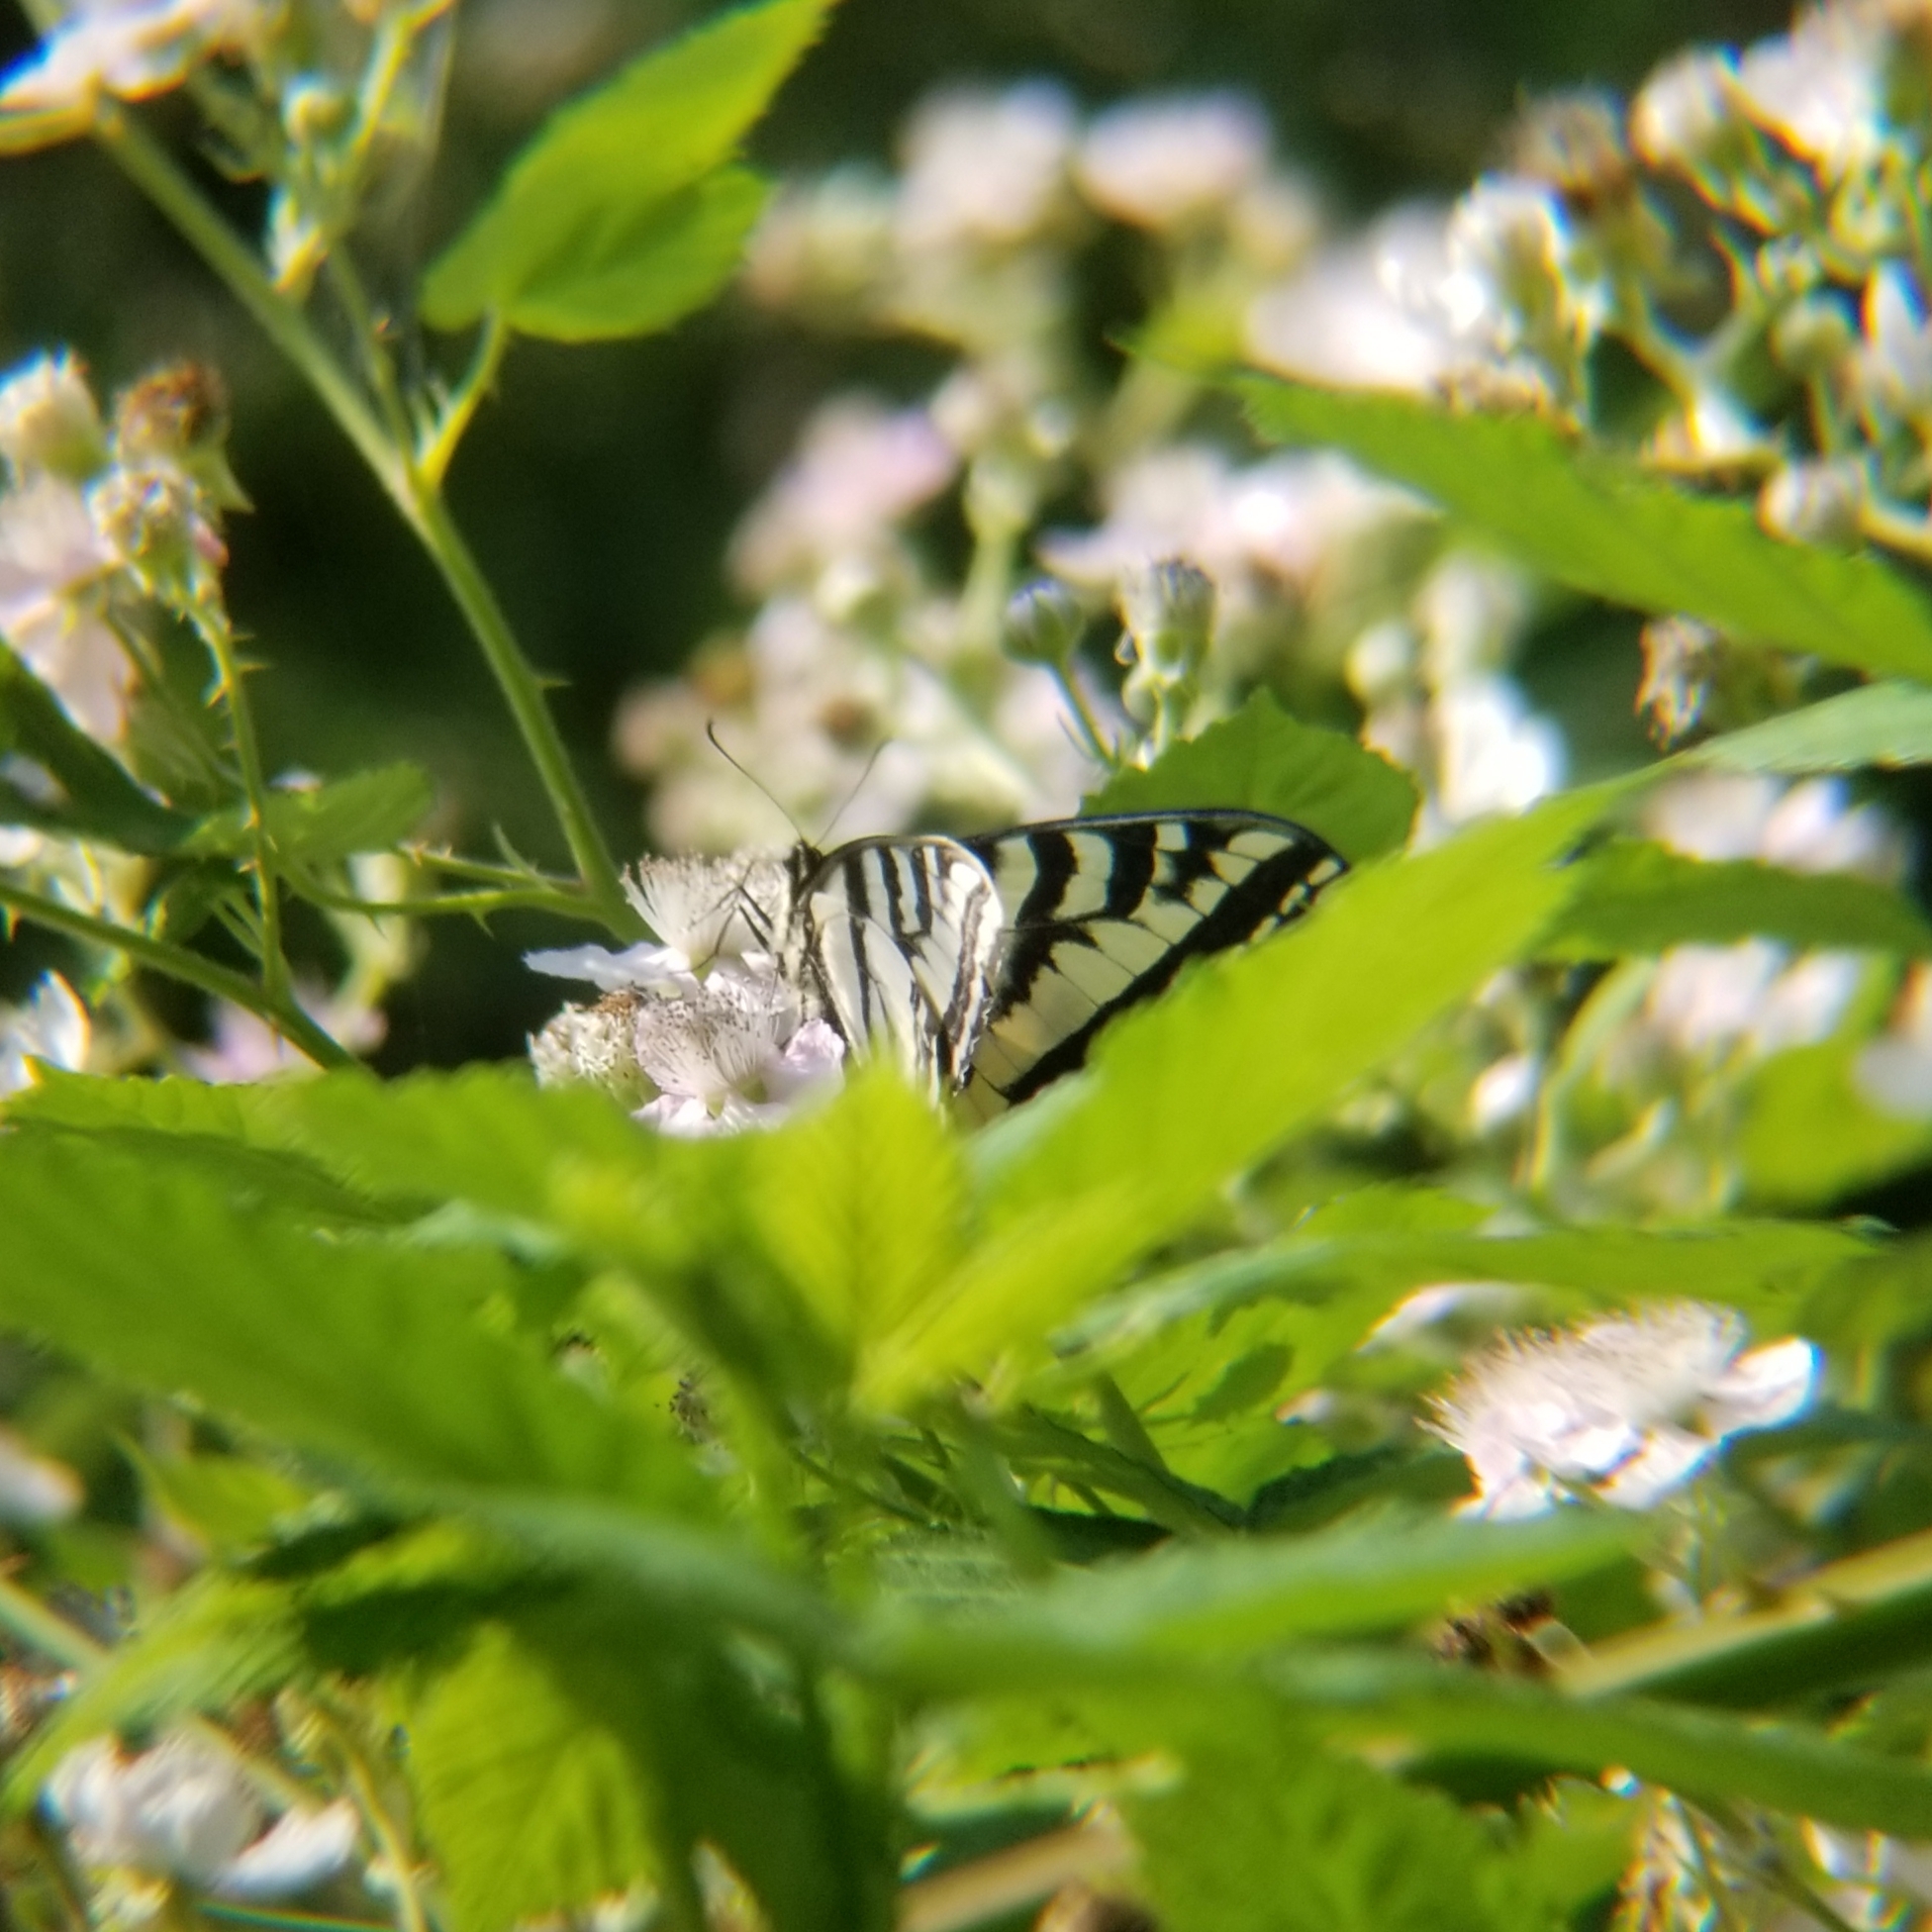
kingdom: Animalia
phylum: Arthropoda
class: Insecta
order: Lepidoptera
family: Papilionidae
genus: Papilio
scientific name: Papilio rutulus
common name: Western tiger swallowtail
